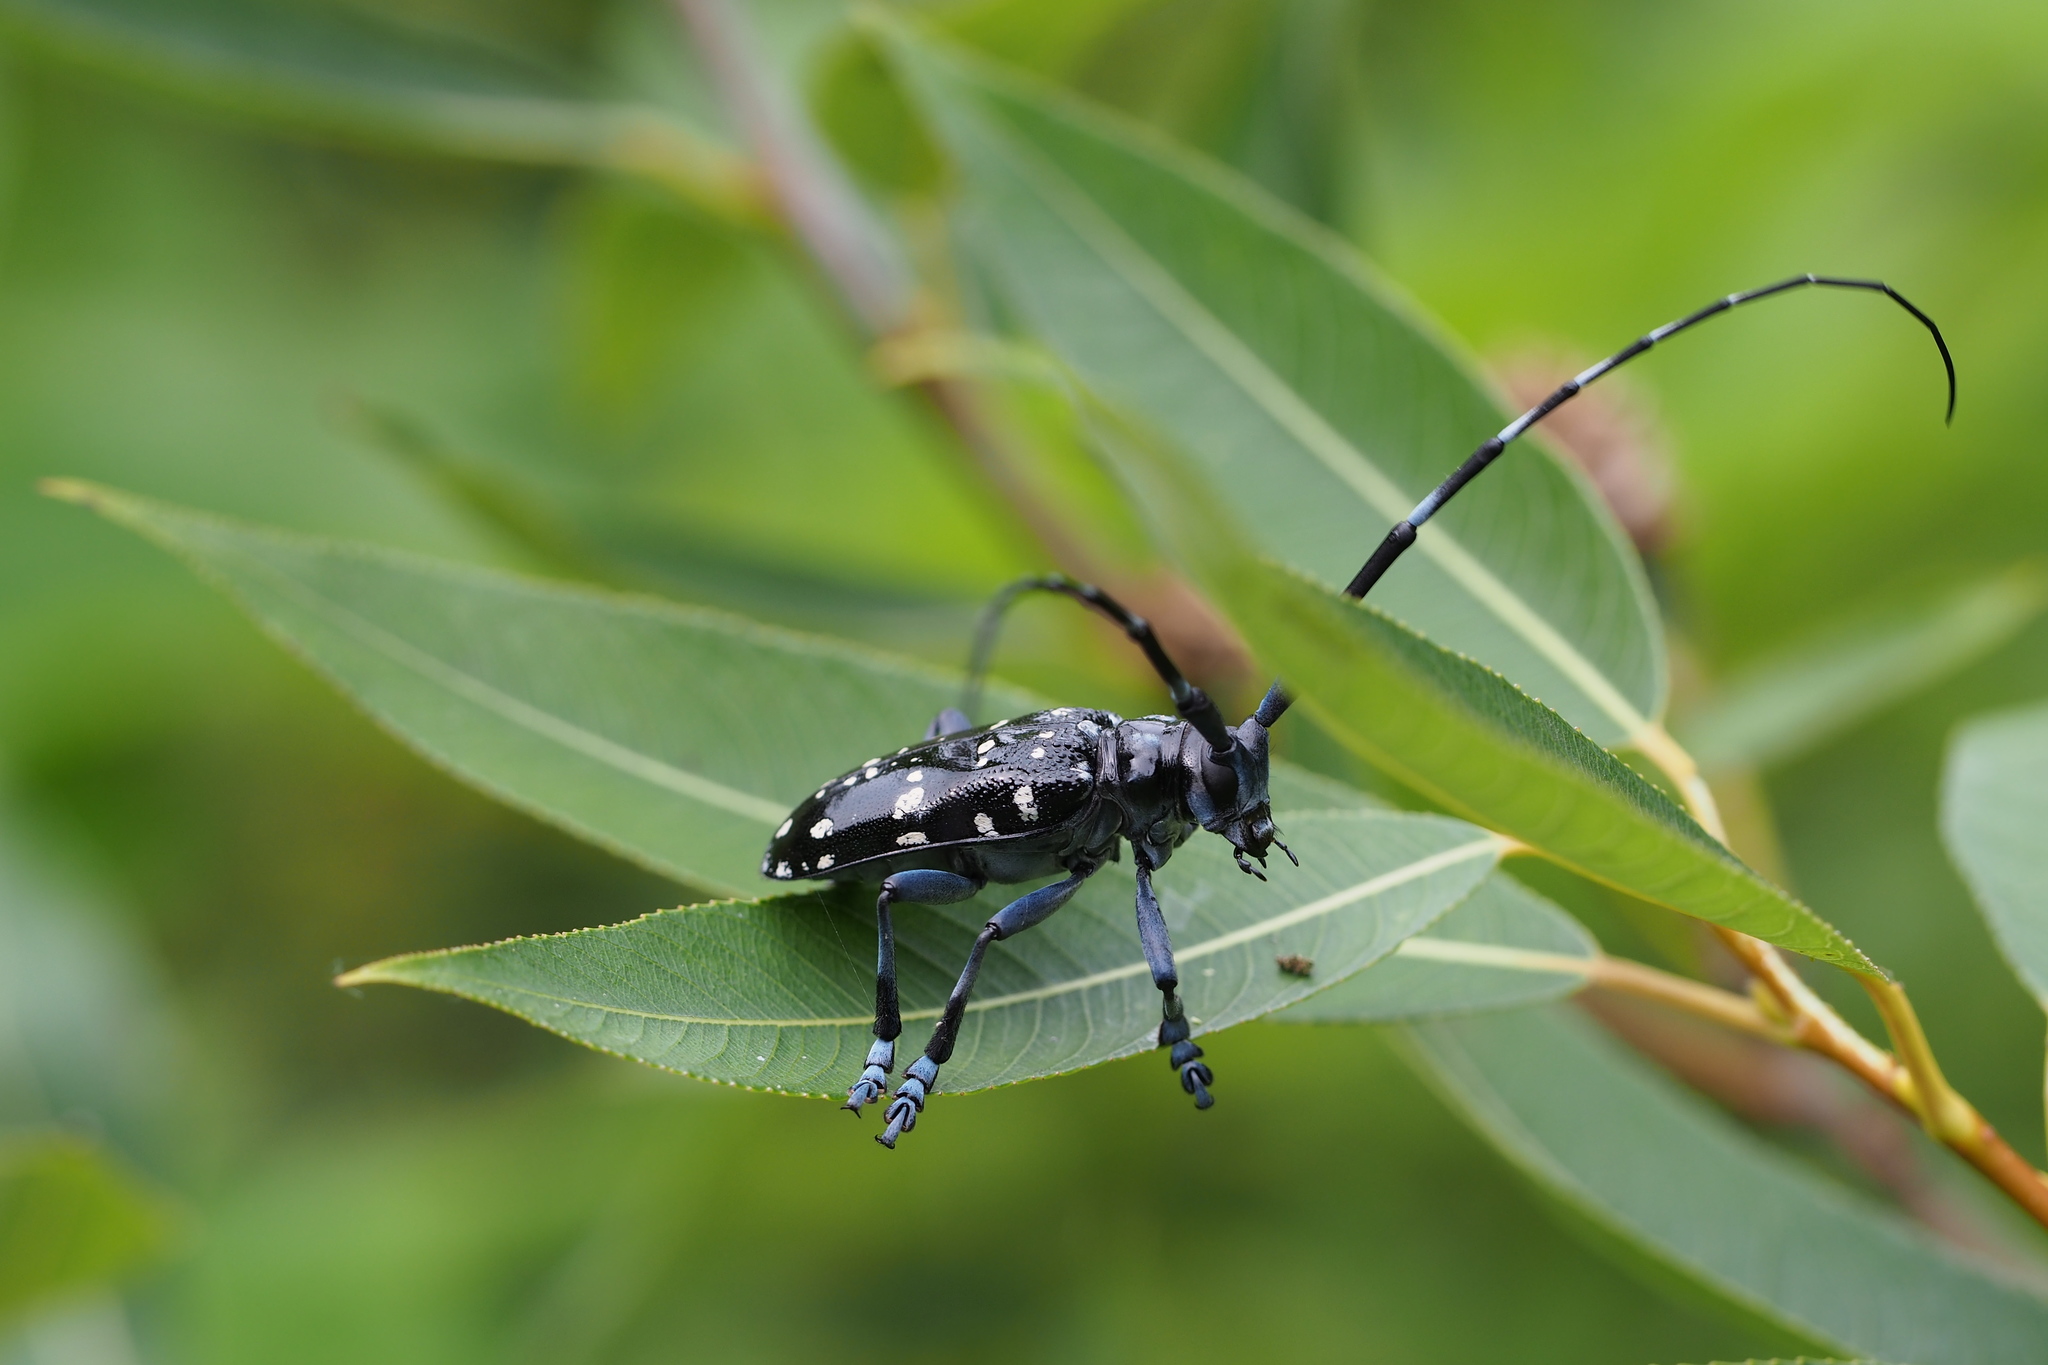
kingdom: Animalia
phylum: Arthropoda
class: Insecta
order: Coleoptera
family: Cerambycidae
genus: Anoplophora
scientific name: Anoplophora chinensis
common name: Citrus longhorned beetle
